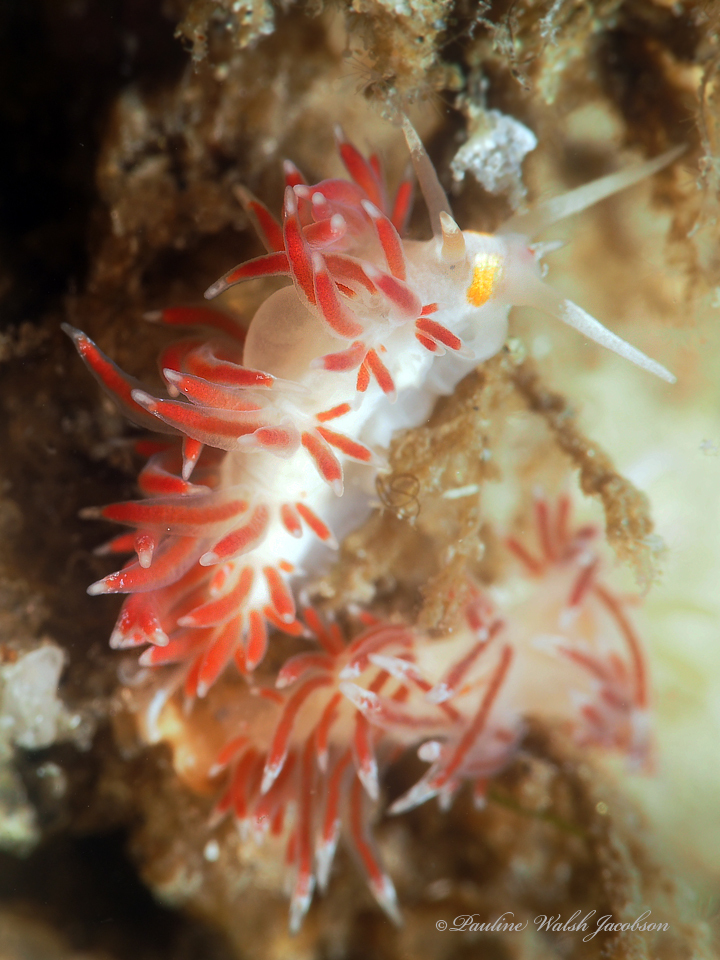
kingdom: Animalia
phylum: Mollusca
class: Gastropoda
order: Nudibranchia
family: Facelinidae
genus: Cratena
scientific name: Cratena minor
